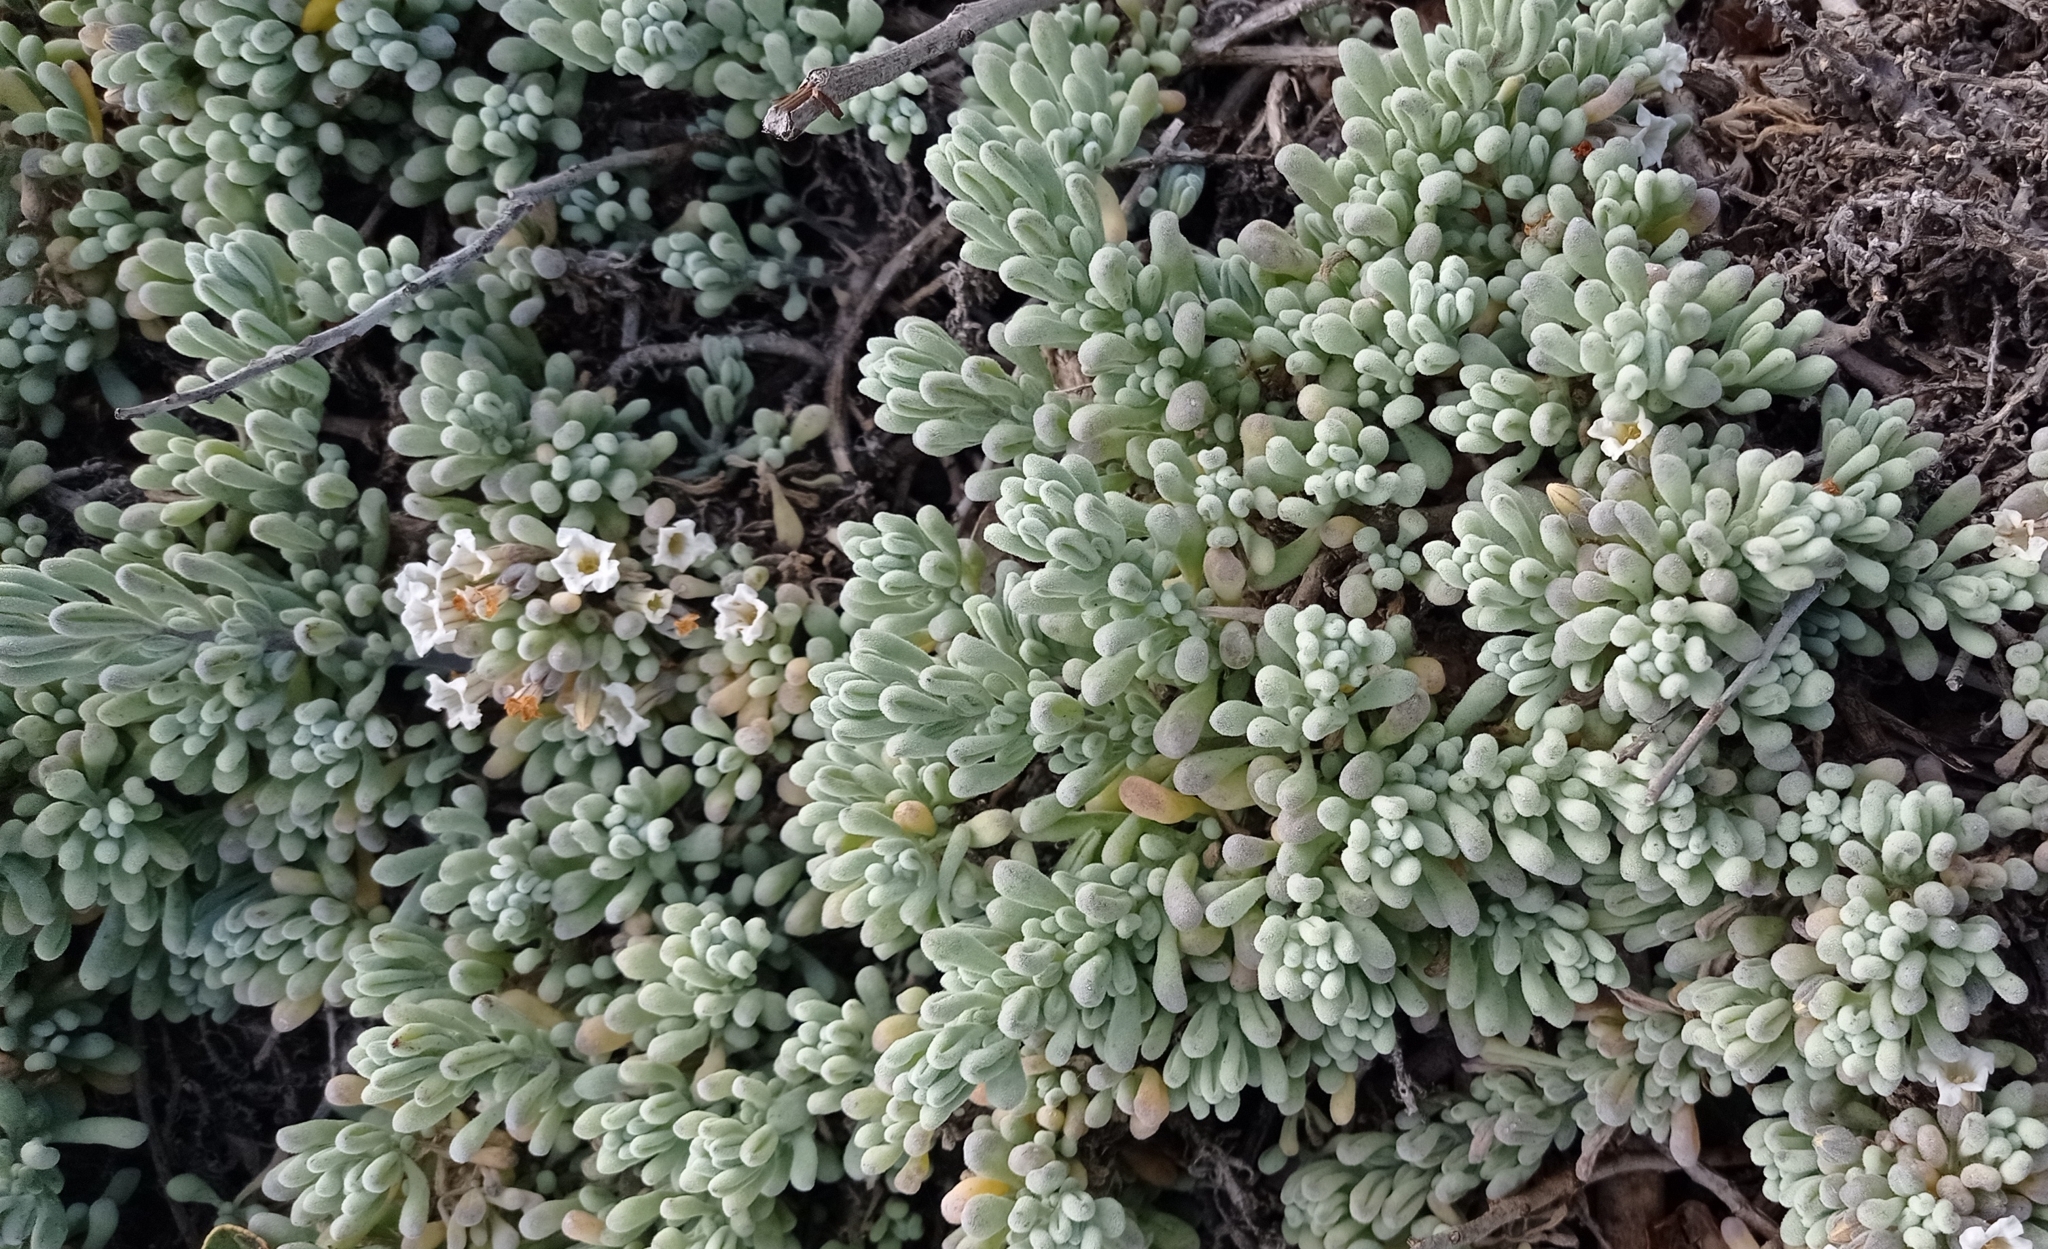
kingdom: Plantae
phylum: Tracheophyta
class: Magnoliopsida
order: Solanales
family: Solanaceae
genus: Nolana
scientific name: Nolana crassulifolia
